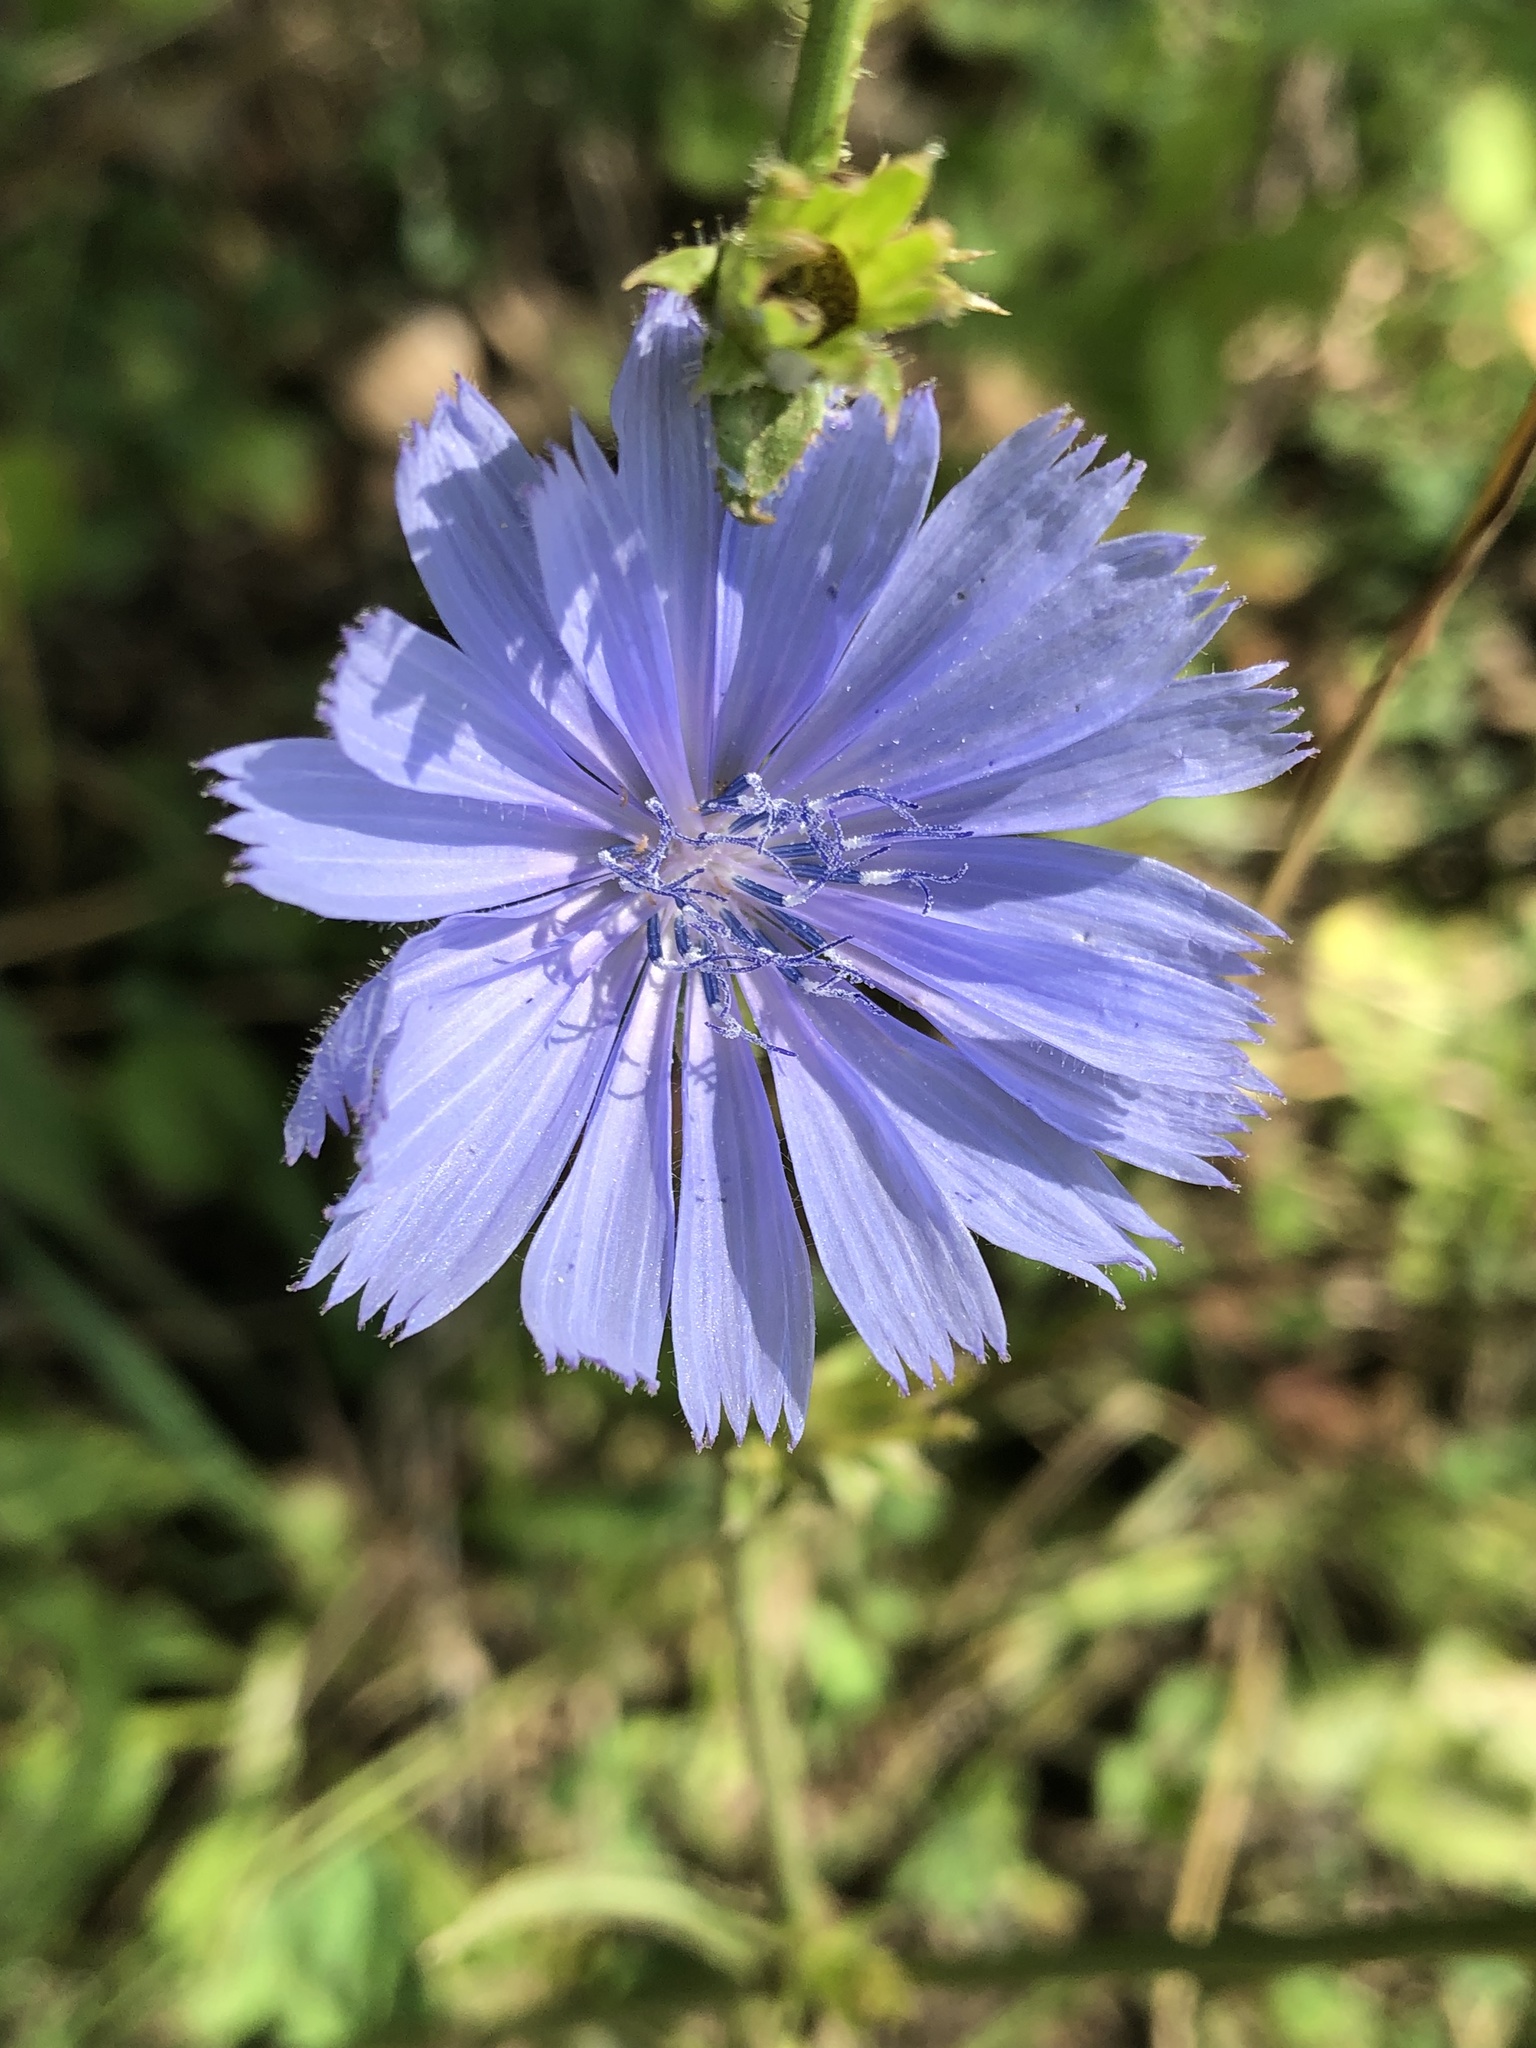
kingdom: Plantae
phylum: Tracheophyta
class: Magnoliopsida
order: Asterales
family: Asteraceae
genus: Cichorium
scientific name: Cichorium intybus
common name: Chicory
